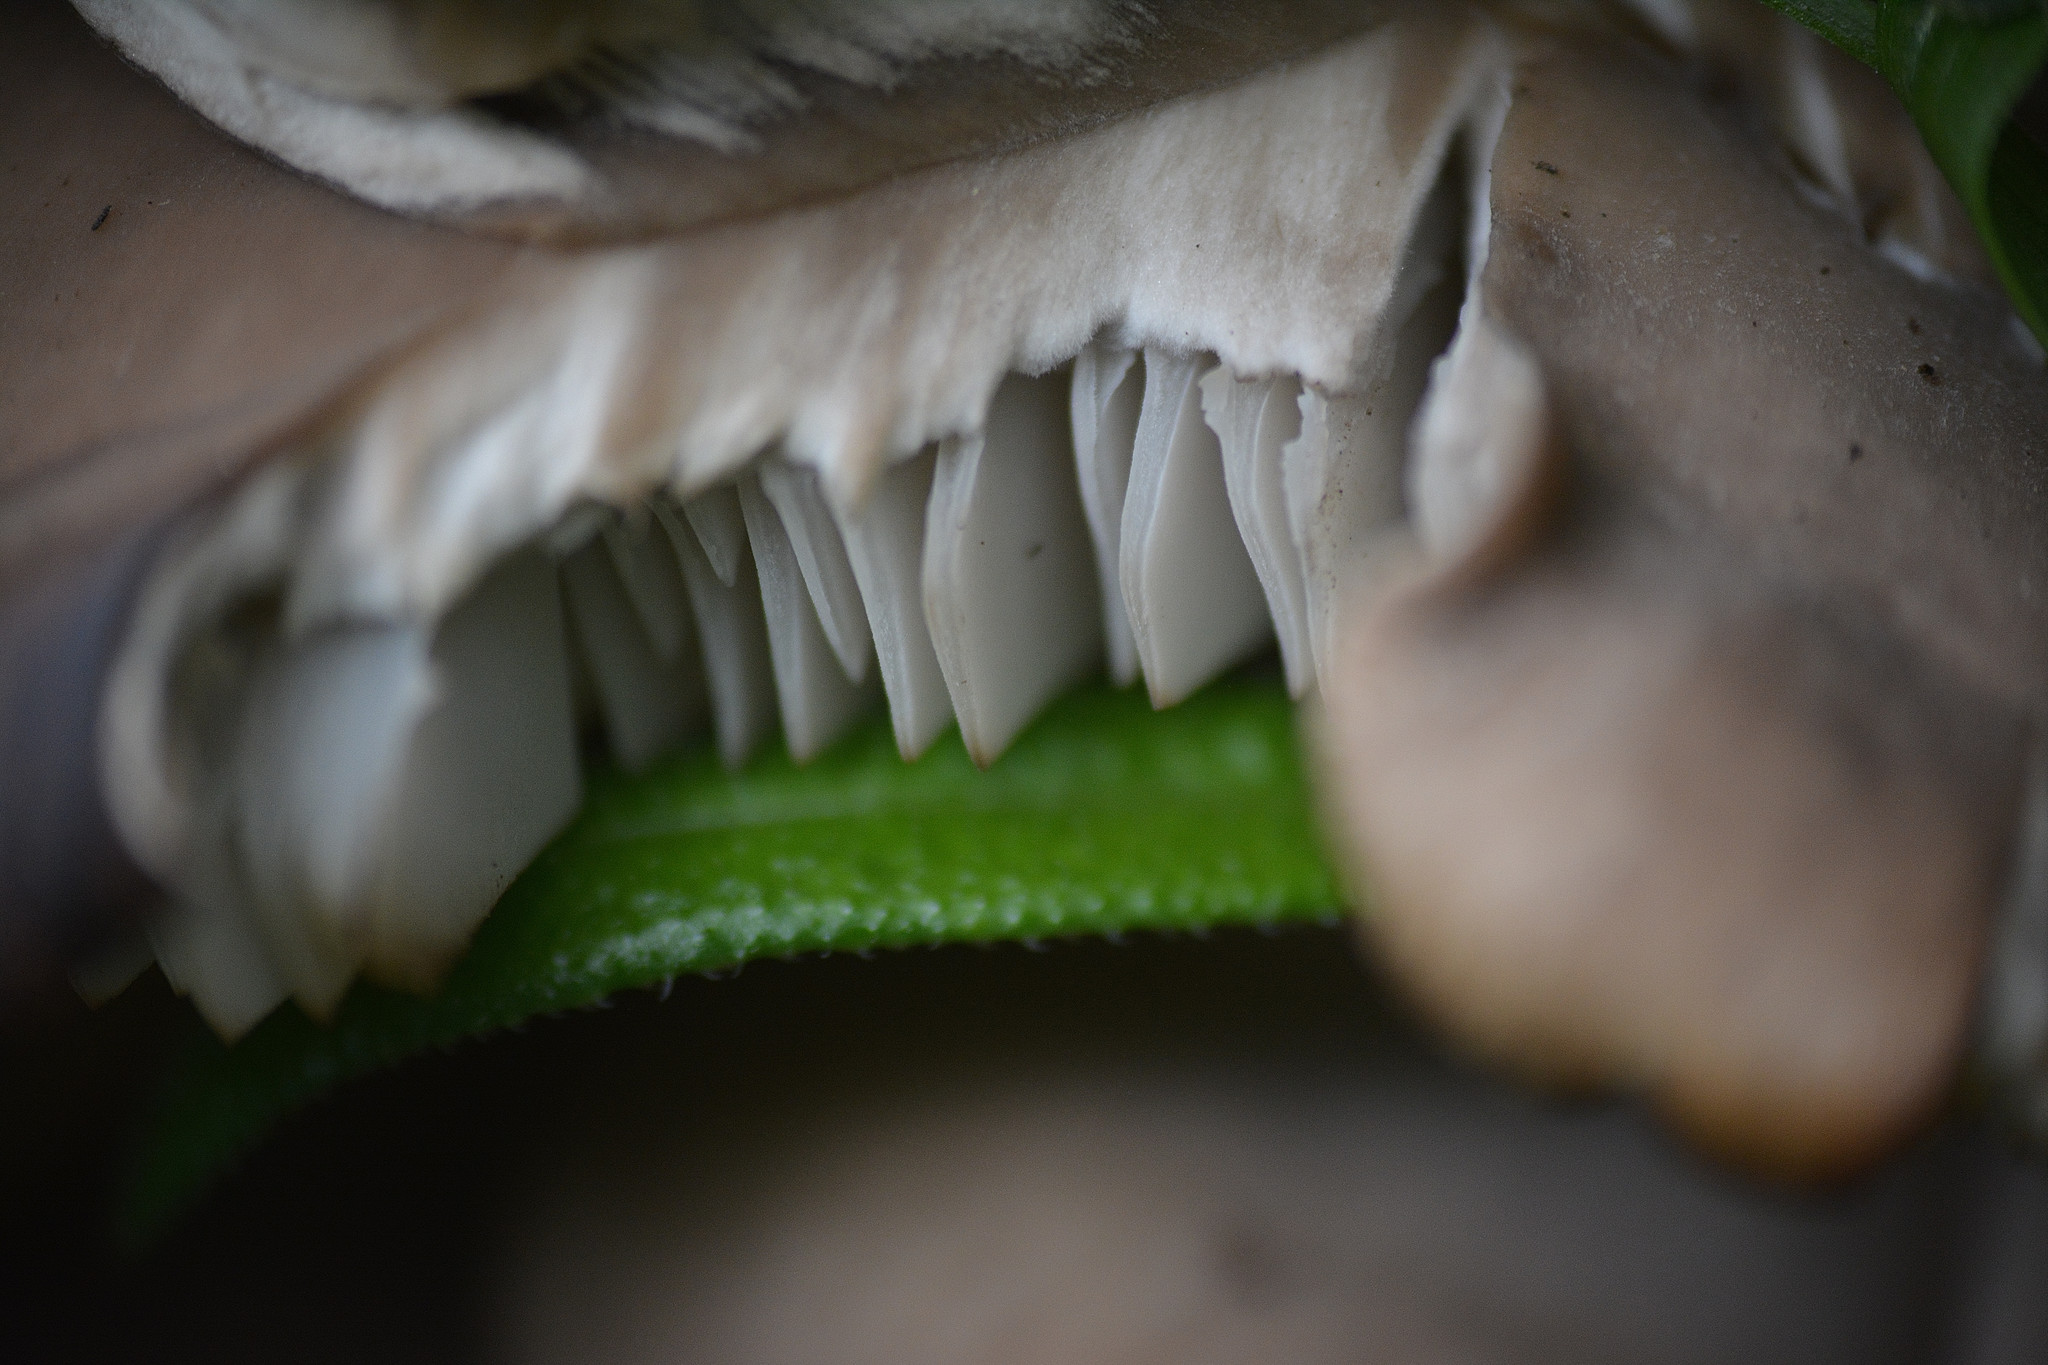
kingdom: Fungi
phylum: Basidiomycota
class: Agaricomycetes
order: Agaricales
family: Pleurotaceae
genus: Pleurotus
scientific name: Pleurotus ostreatus
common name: Oyster mushroom
